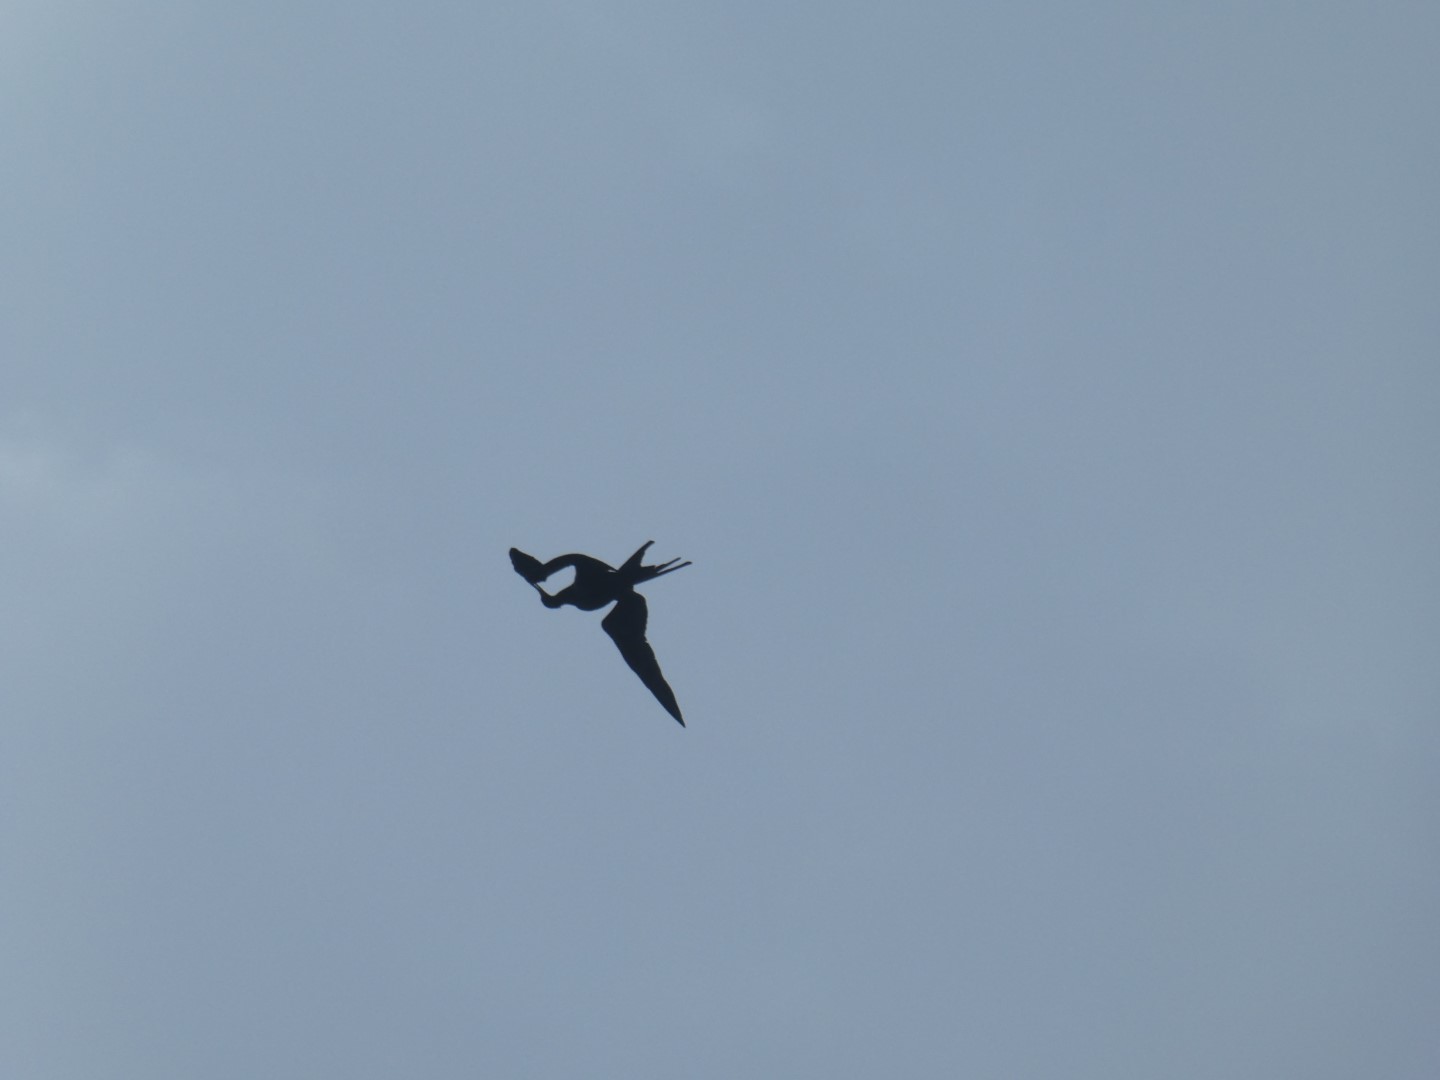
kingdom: Animalia
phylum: Chordata
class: Aves
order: Suliformes
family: Fregatidae
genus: Fregata
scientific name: Fregata magnificens
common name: Magnificent frigatebird
